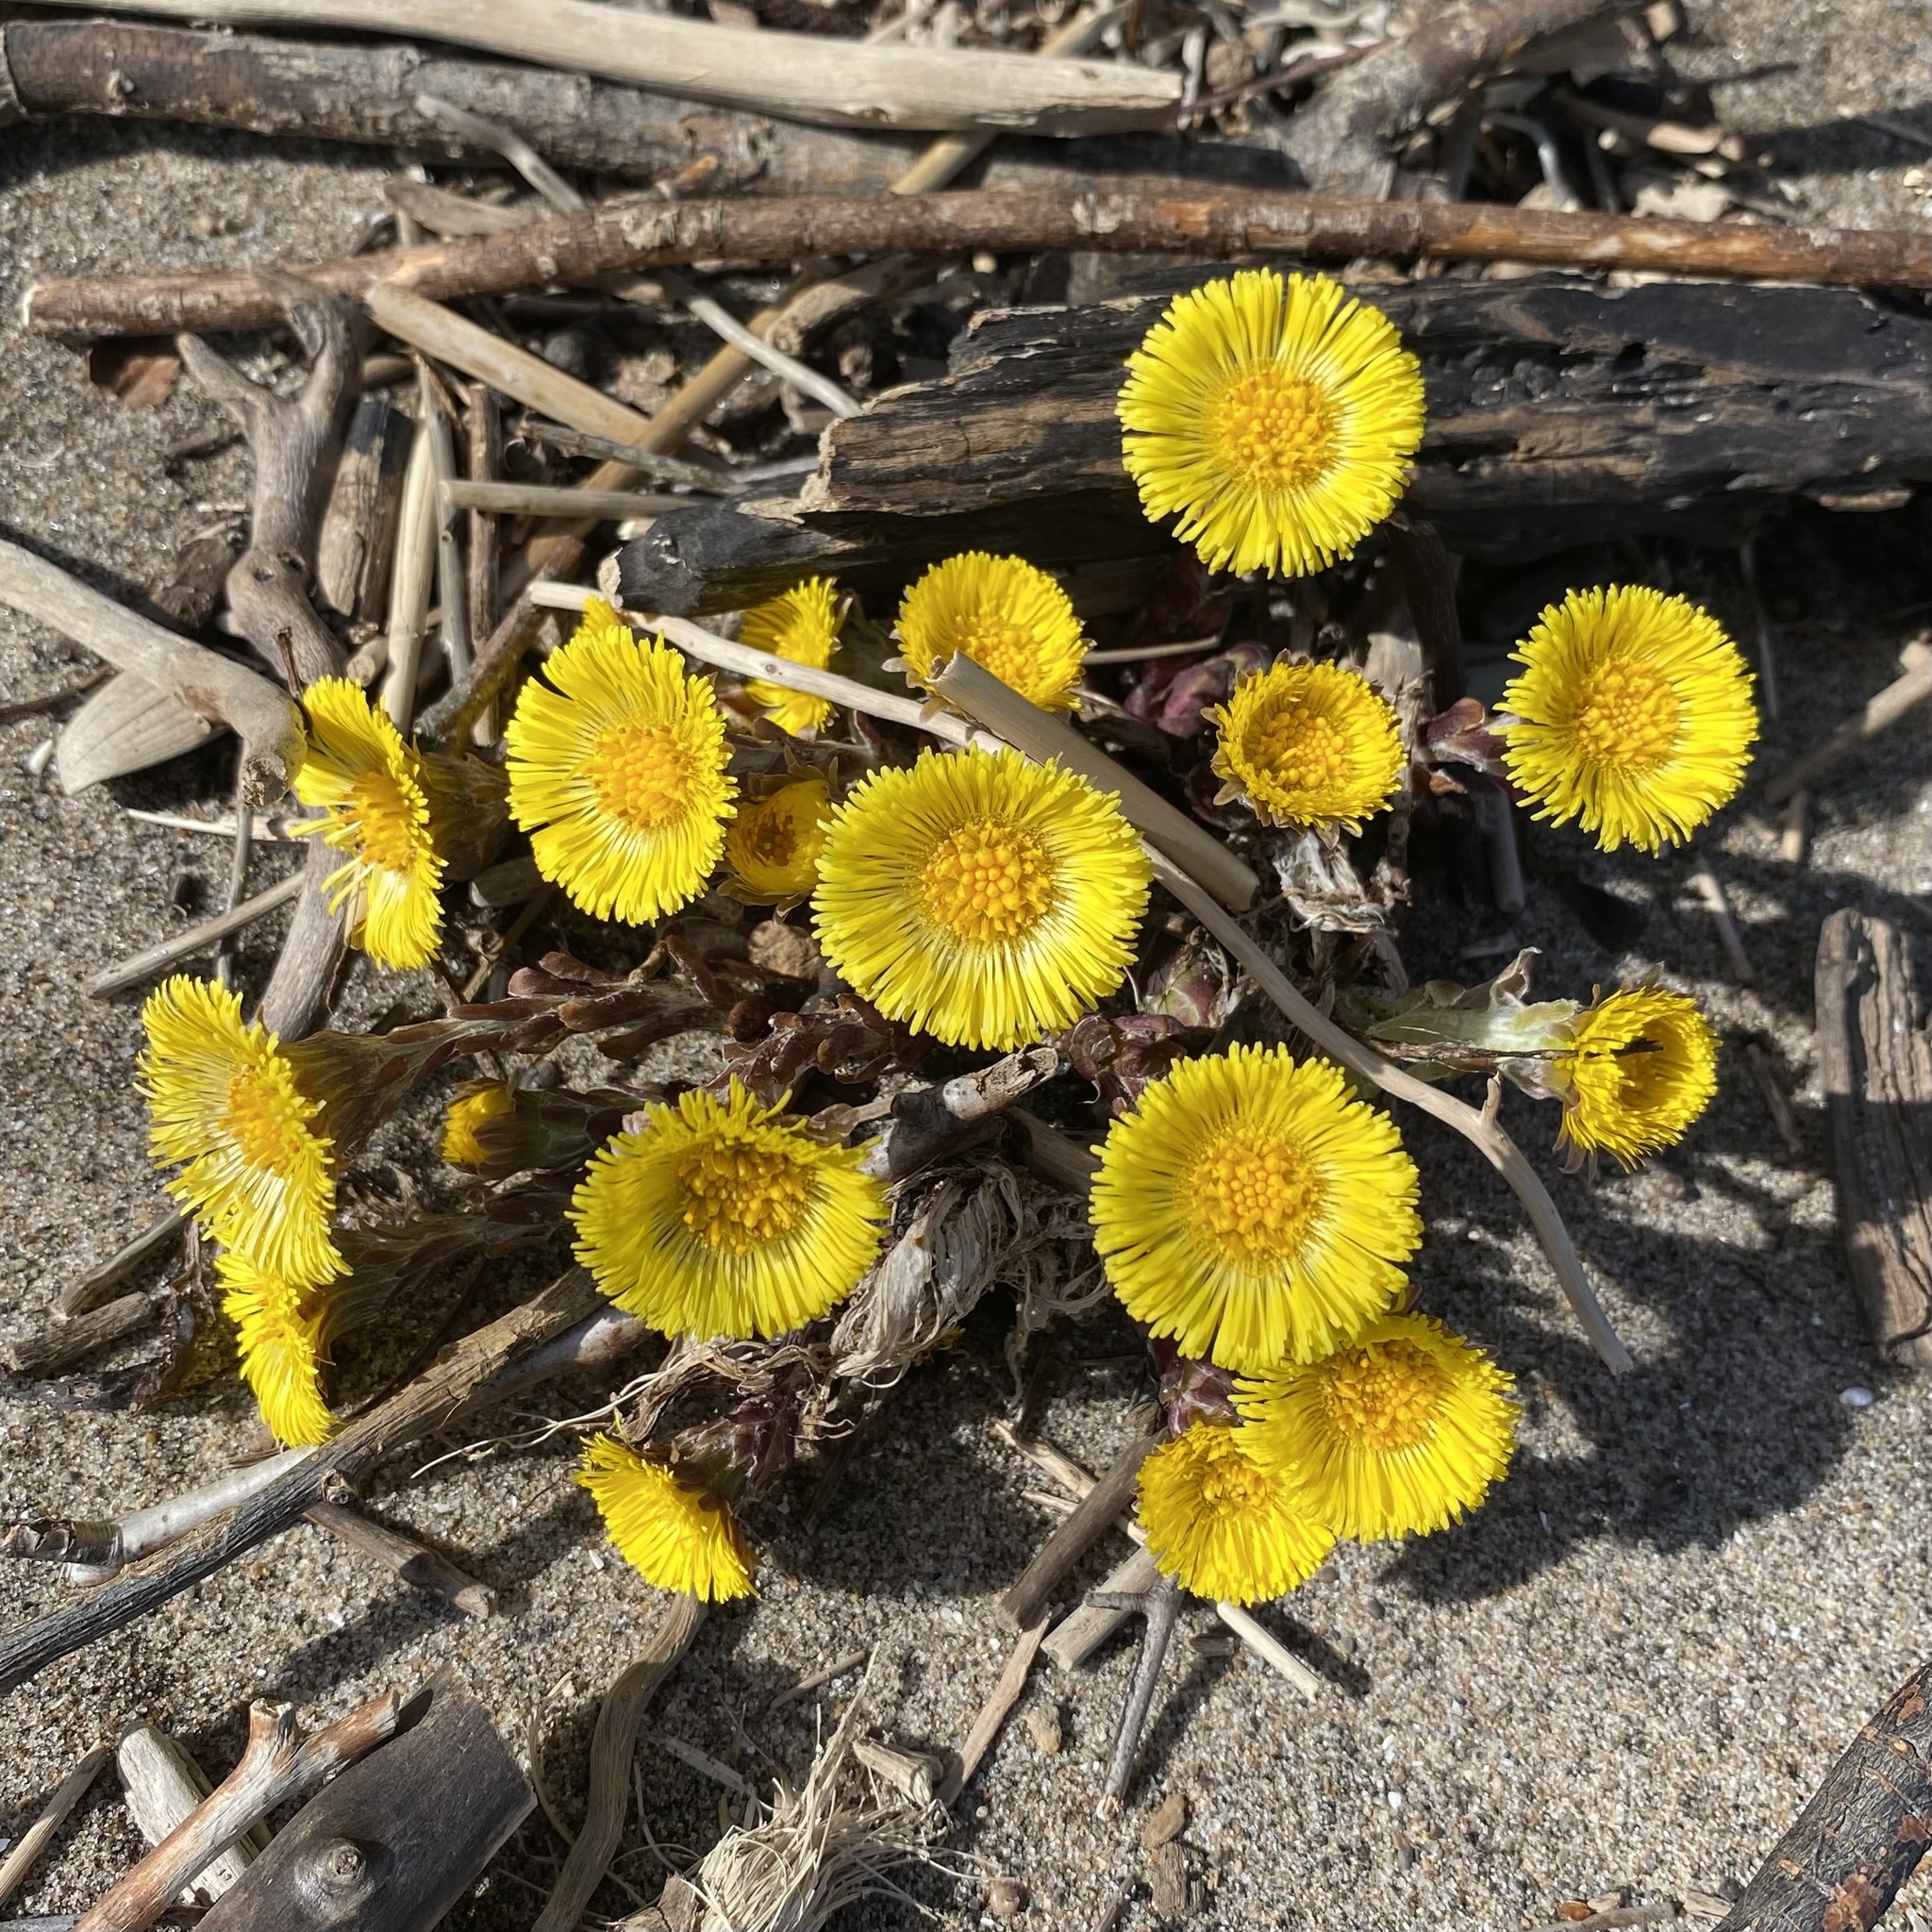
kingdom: Plantae
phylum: Tracheophyta
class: Magnoliopsida
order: Asterales
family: Asteraceae
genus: Tussilago
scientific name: Tussilago farfara
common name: Coltsfoot
